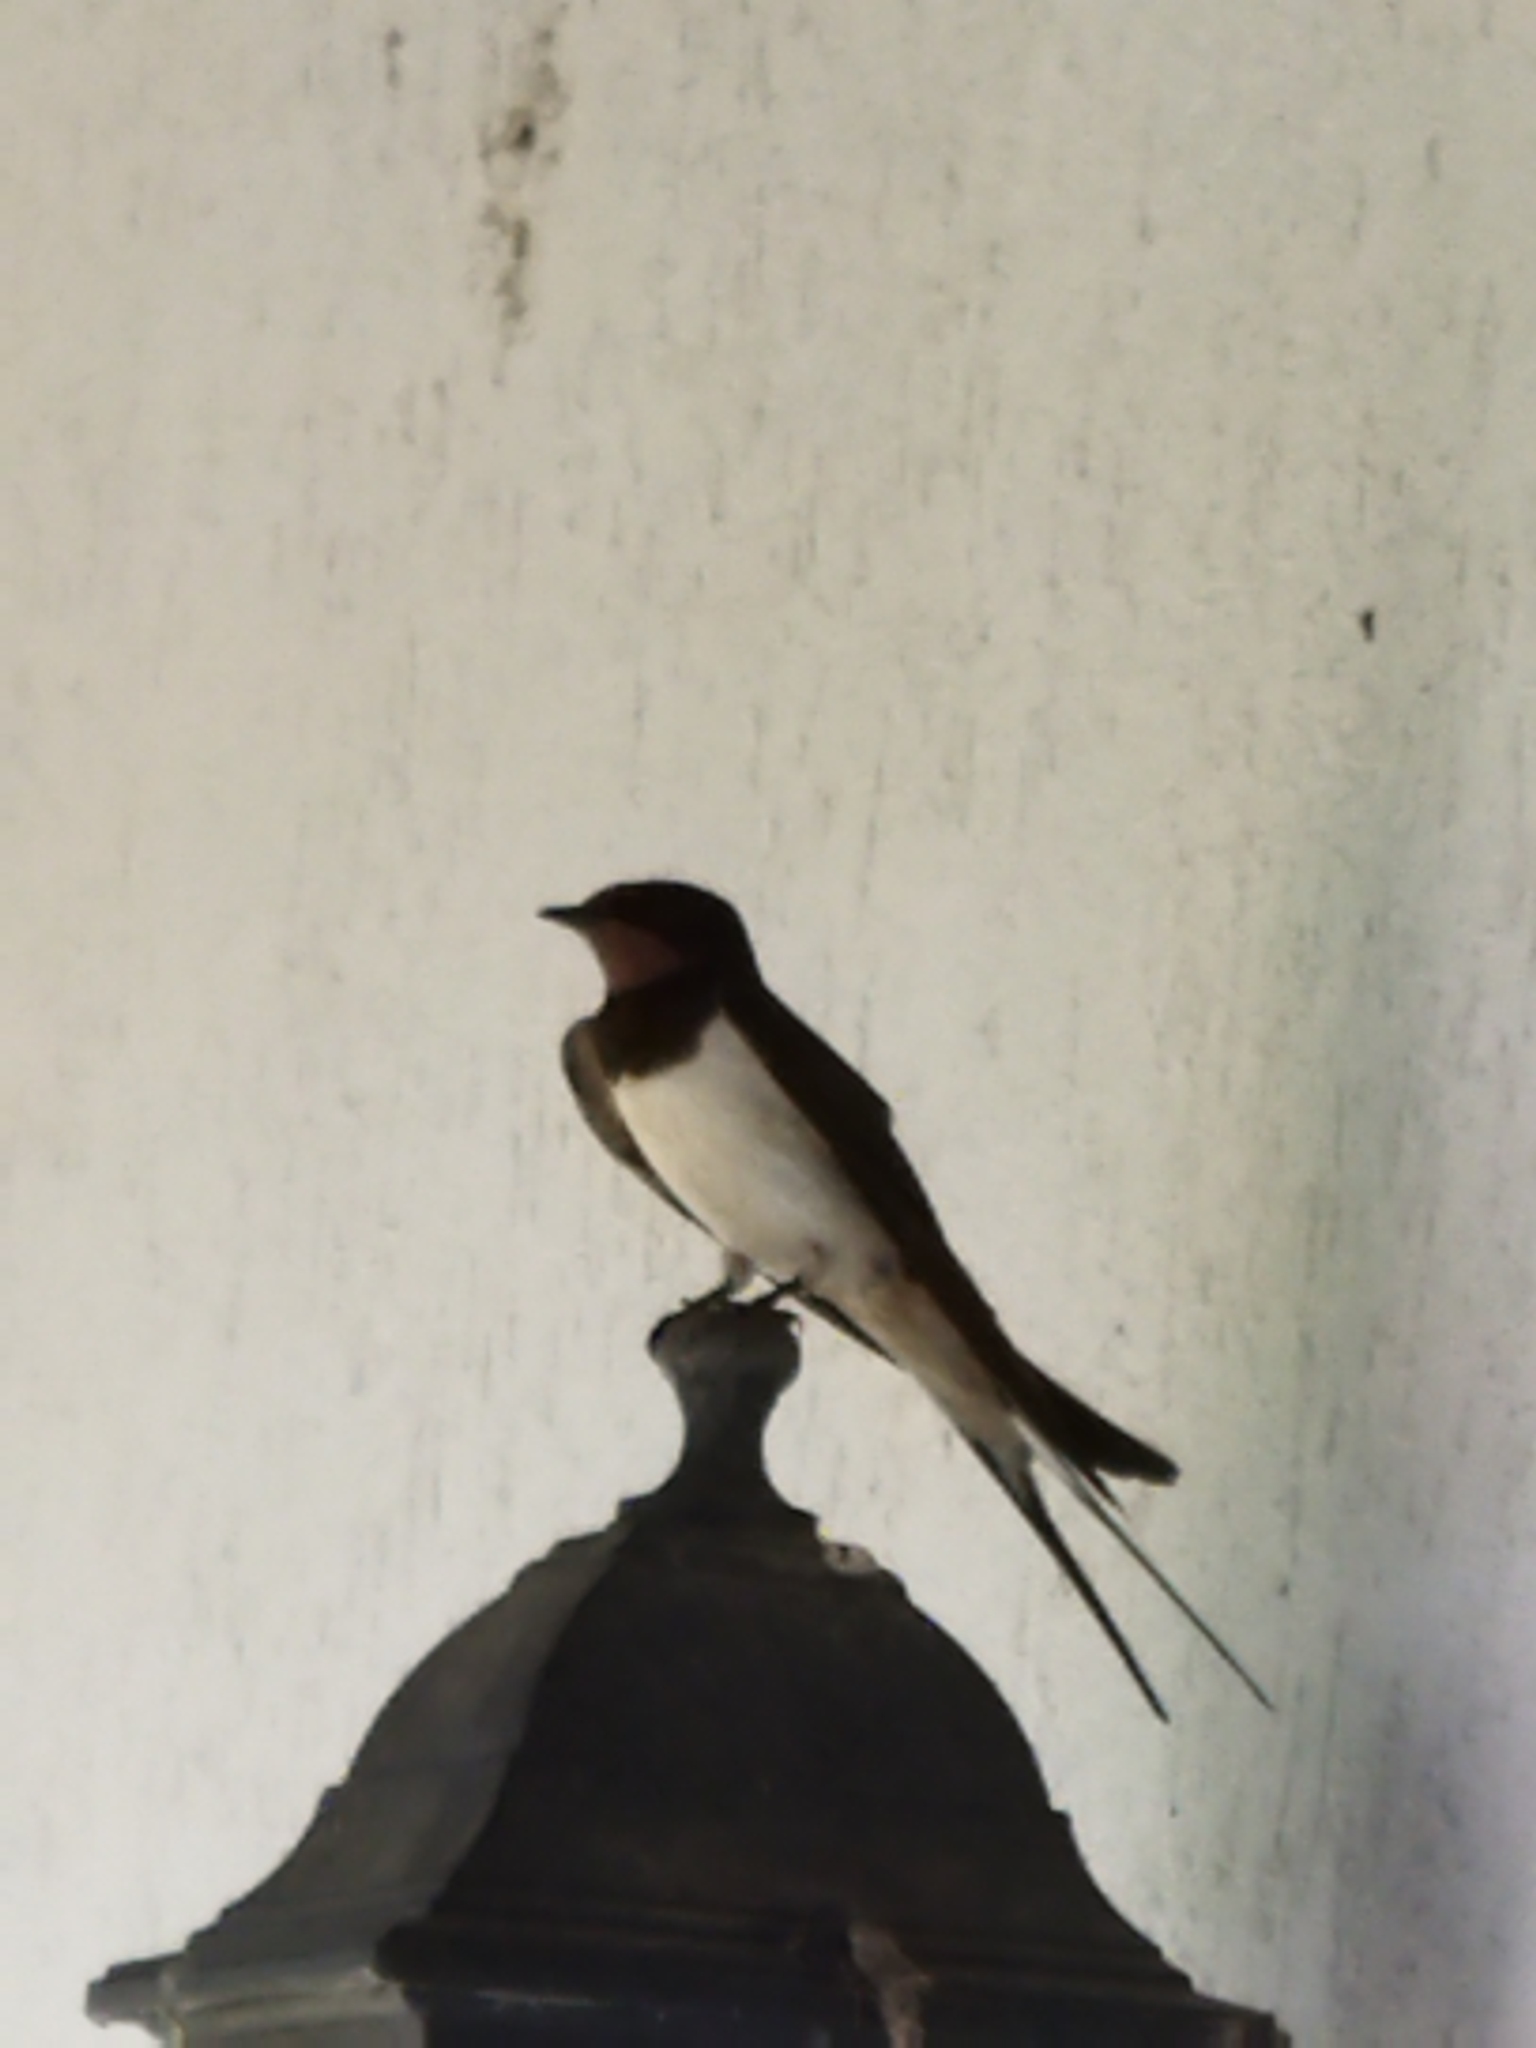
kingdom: Animalia
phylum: Chordata
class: Aves
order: Passeriformes
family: Hirundinidae
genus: Hirundo
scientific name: Hirundo rustica
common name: Barn swallow
